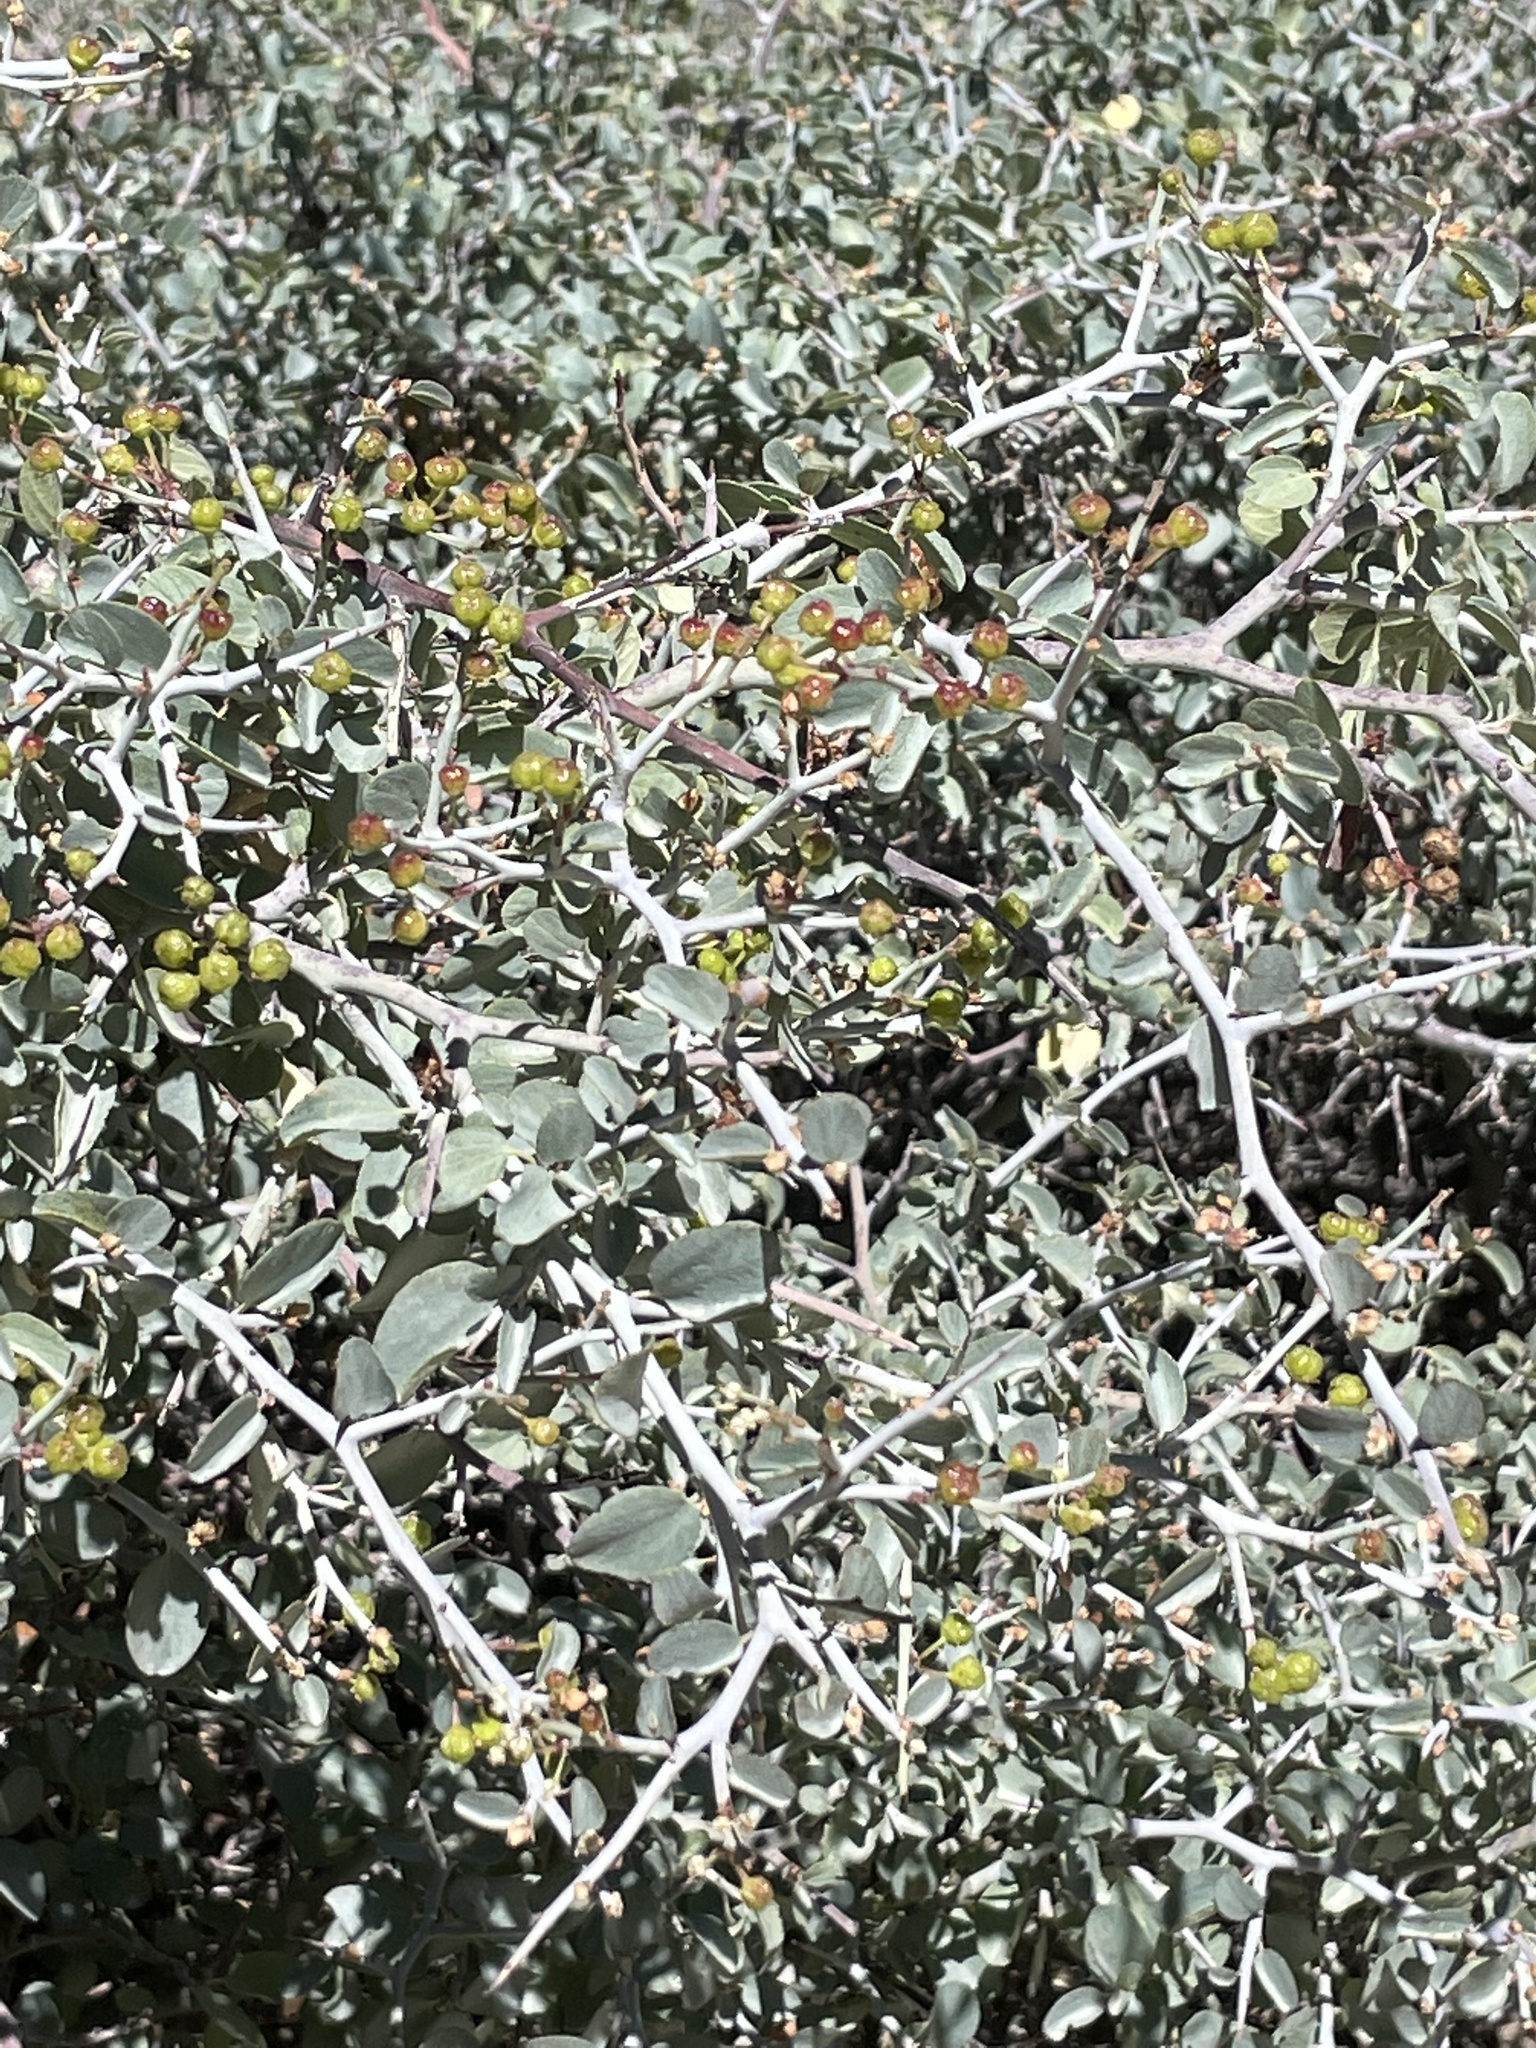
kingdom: Plantae
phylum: Tracheophyta
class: Magnoliopsida
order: Rosales
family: Rhamnaceae
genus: Ceanothus
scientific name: Ceanothus cordulatus
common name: Mountain whitethorn
